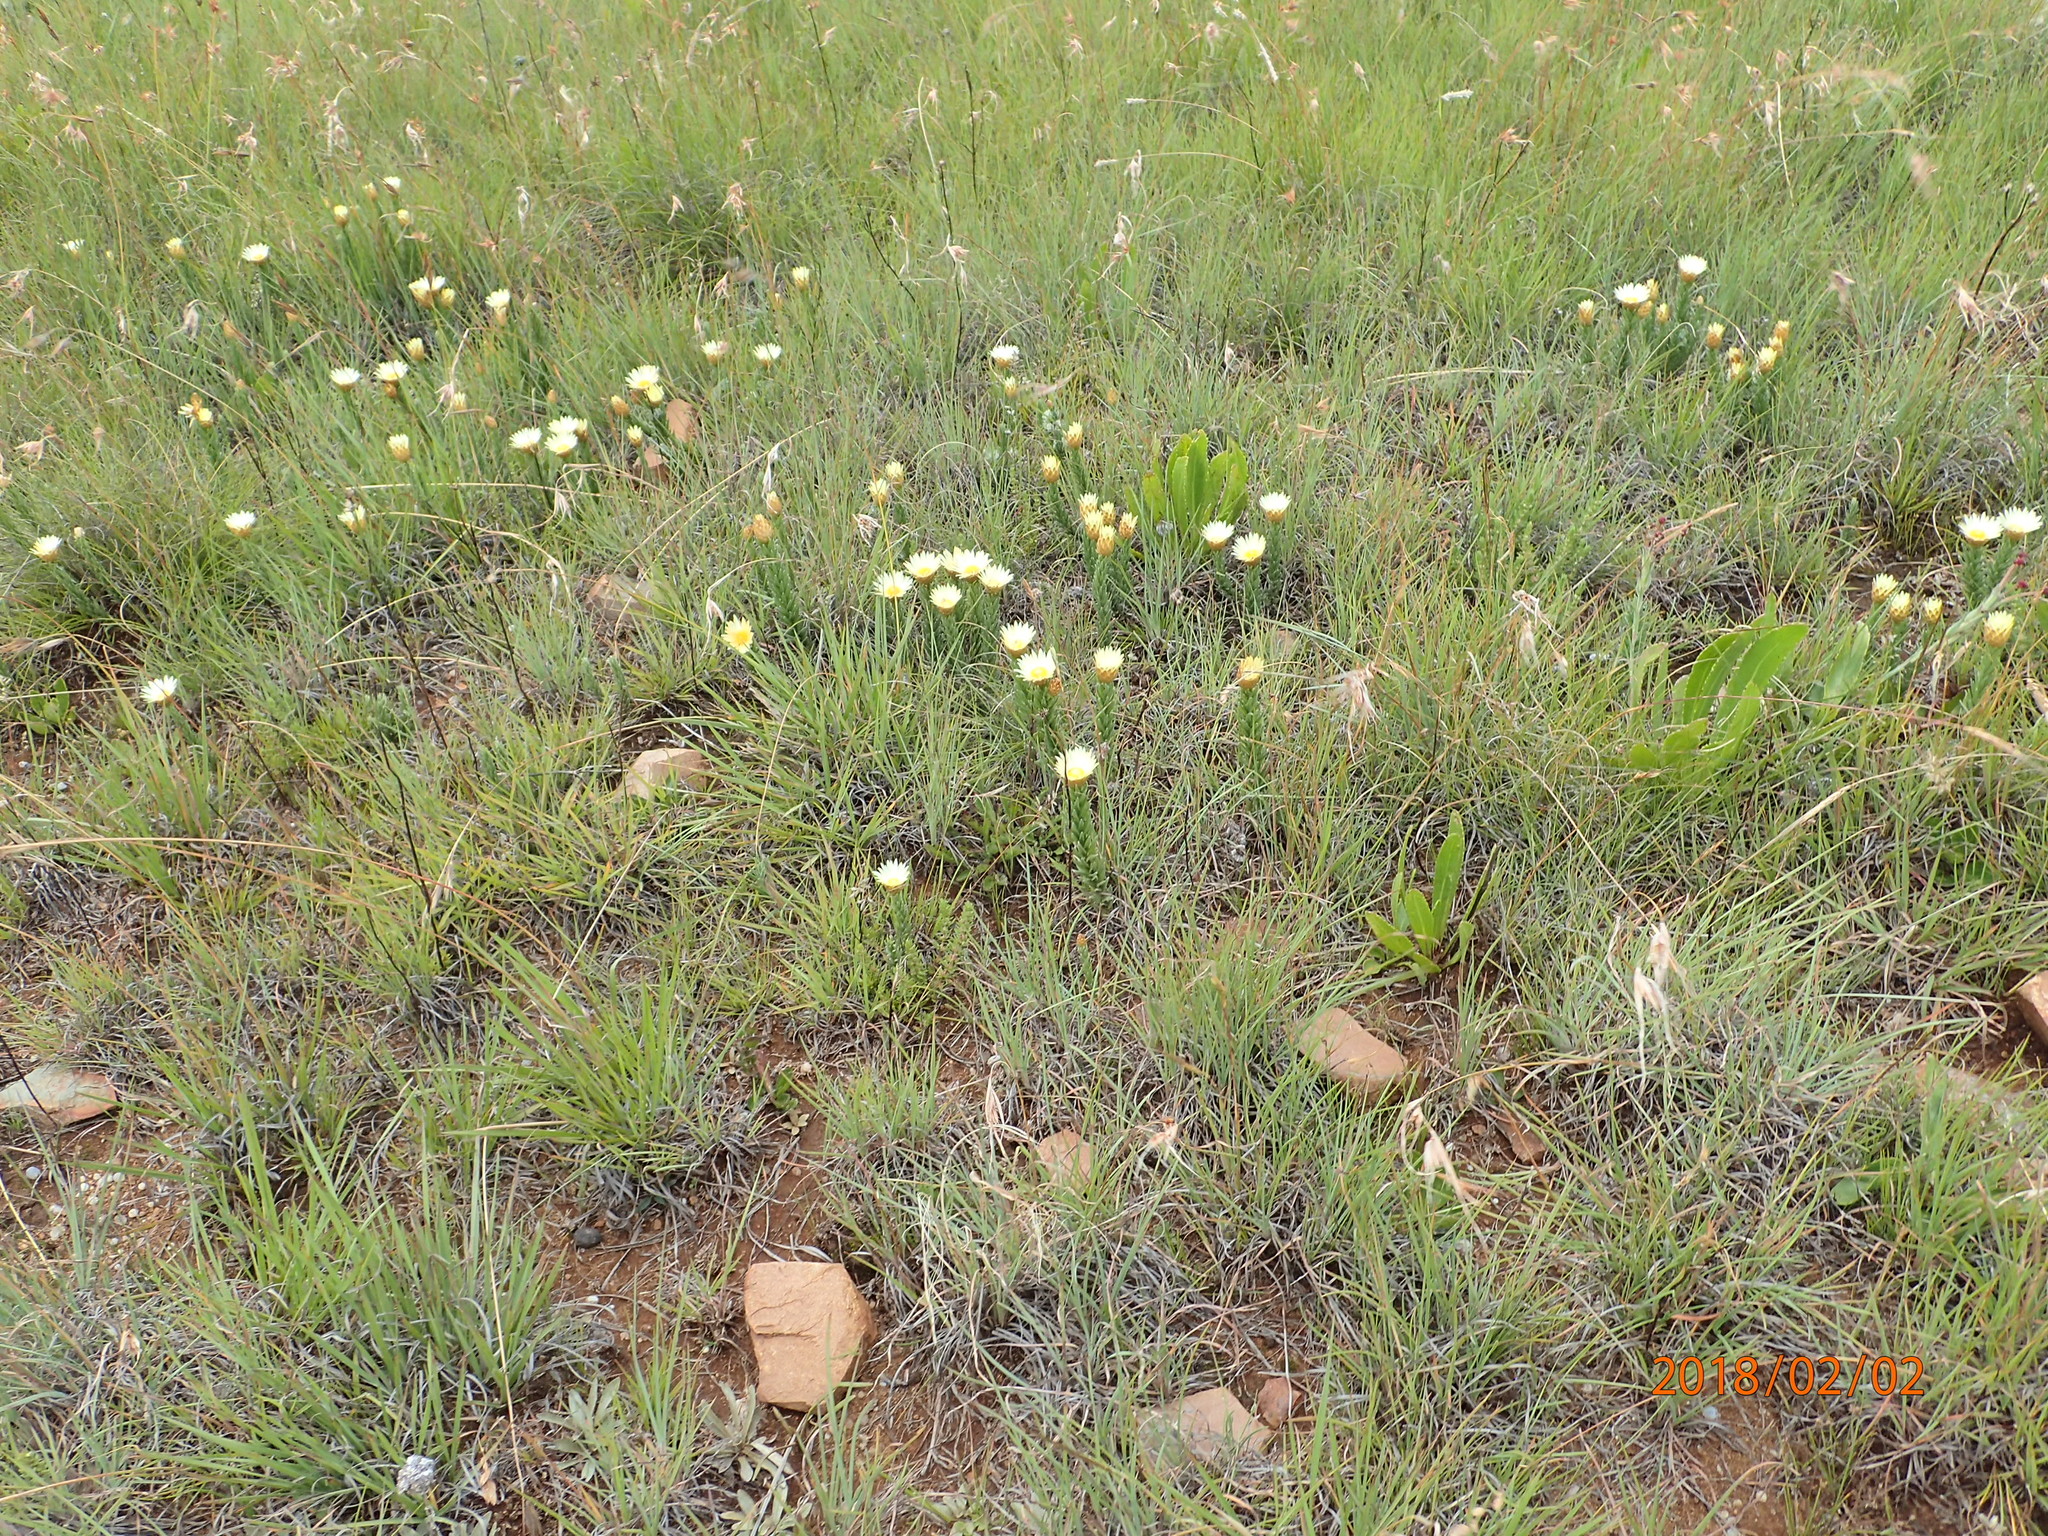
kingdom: Plantae
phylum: Tracheophyta
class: Magnoliopsida
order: Asterales
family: Asteraceae
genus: Helichrysum
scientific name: Helichrysum herbaceum
